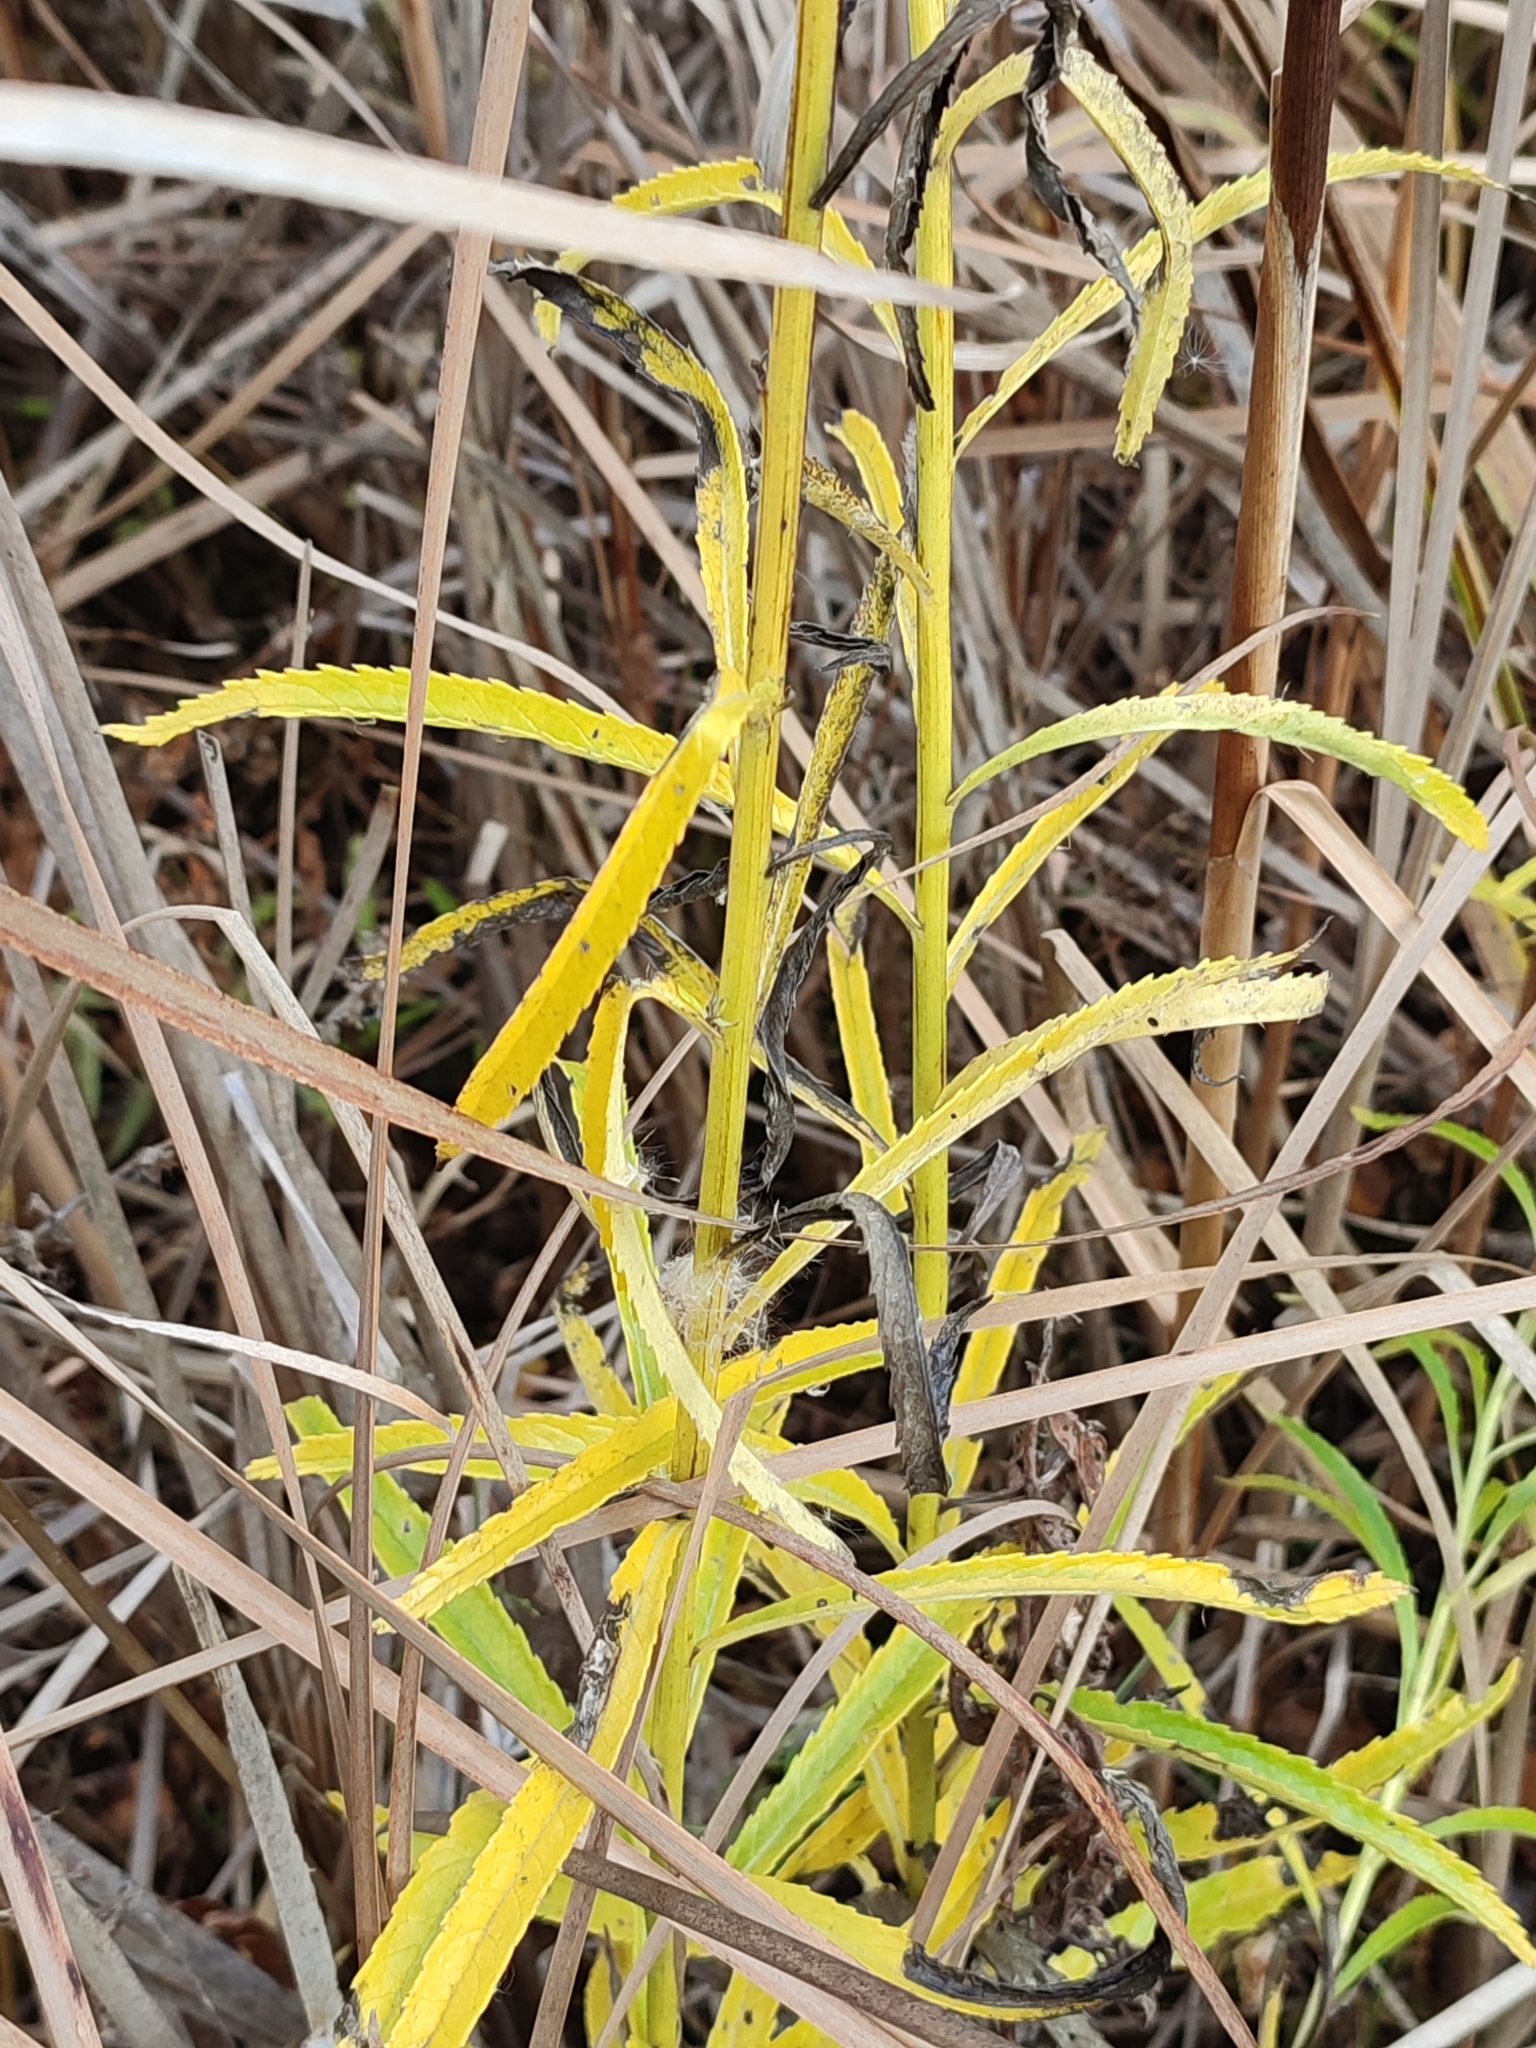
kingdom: Plantae
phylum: Tracheophyta
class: Magnoliopsida
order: Asterales
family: Asteraceae
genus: Jacobaea
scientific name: Jacobaea paludosa
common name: Fen ragwort
